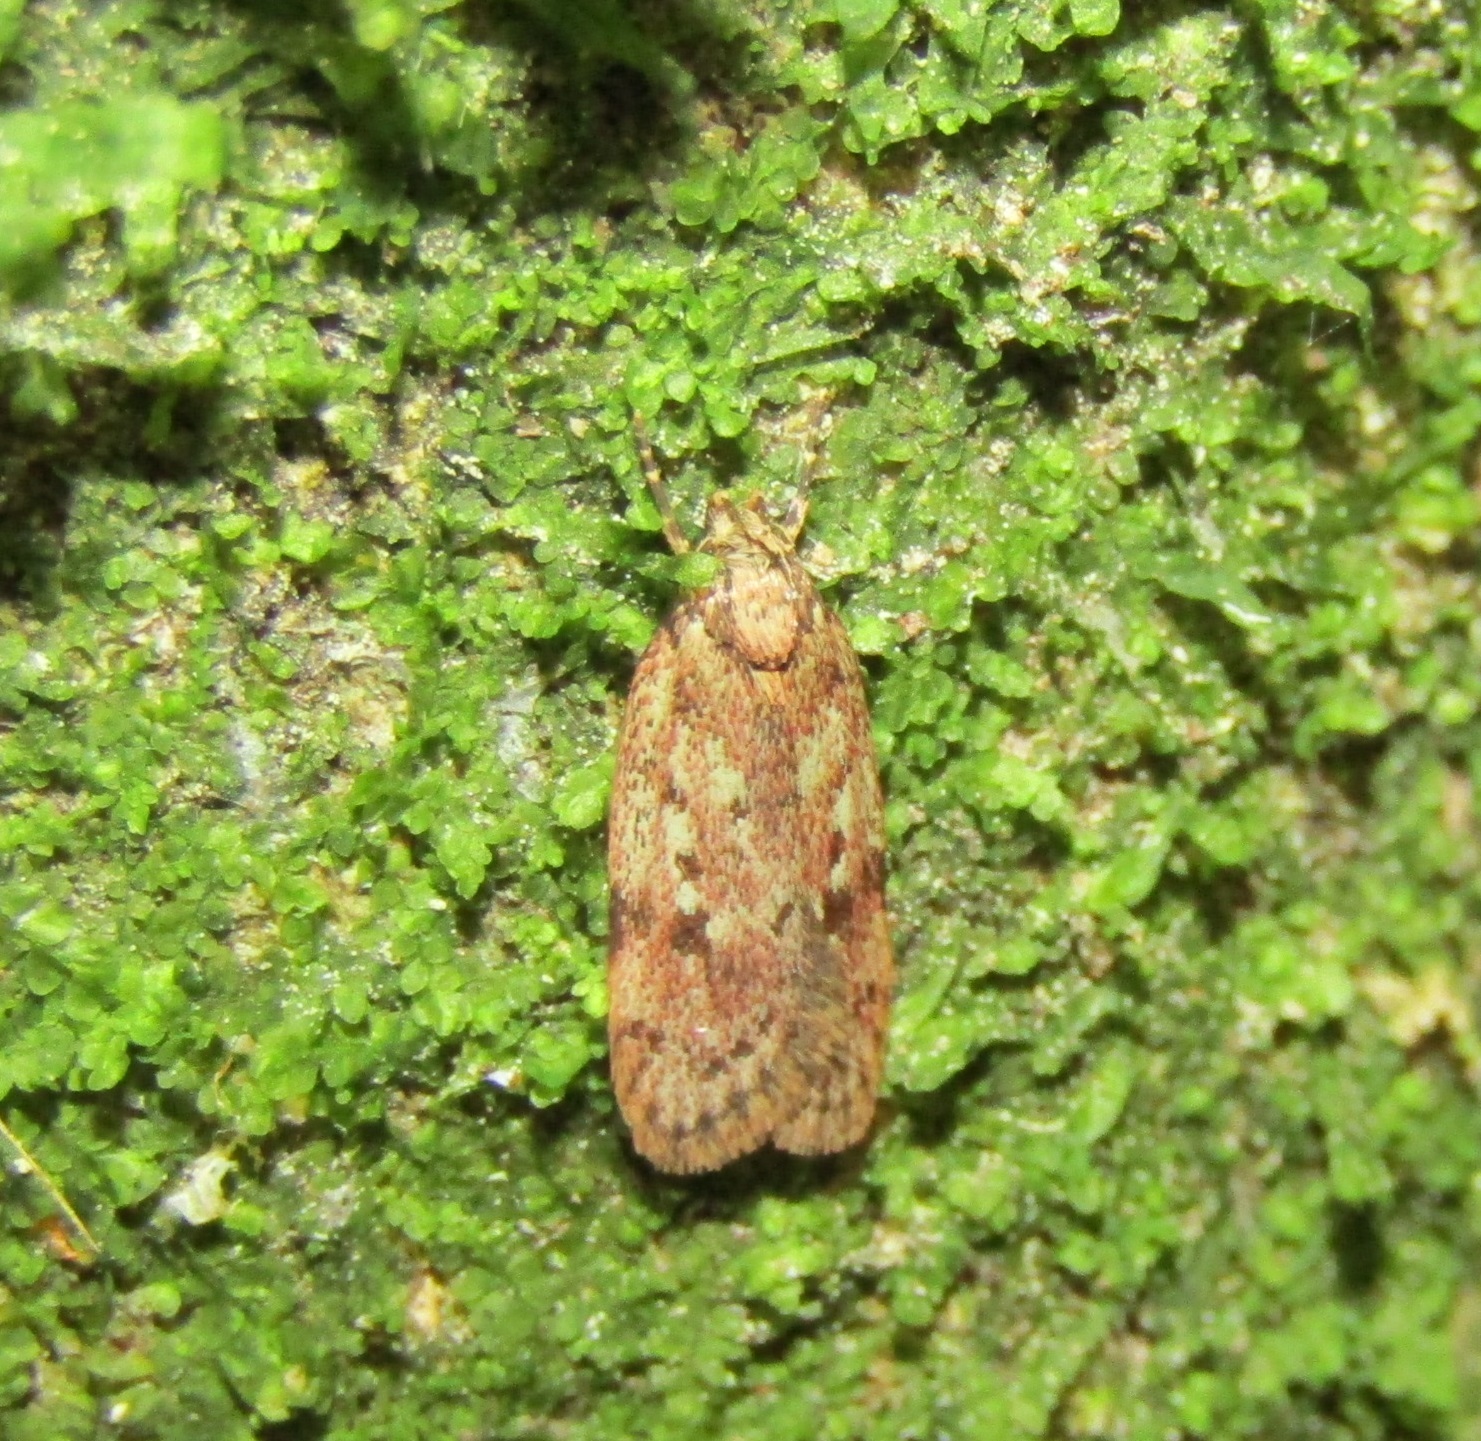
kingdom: Animalia
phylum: Arthropoda
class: Insecta
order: Lepidoptera
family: Oecophoridae
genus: Barea
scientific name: Barea exarcha
